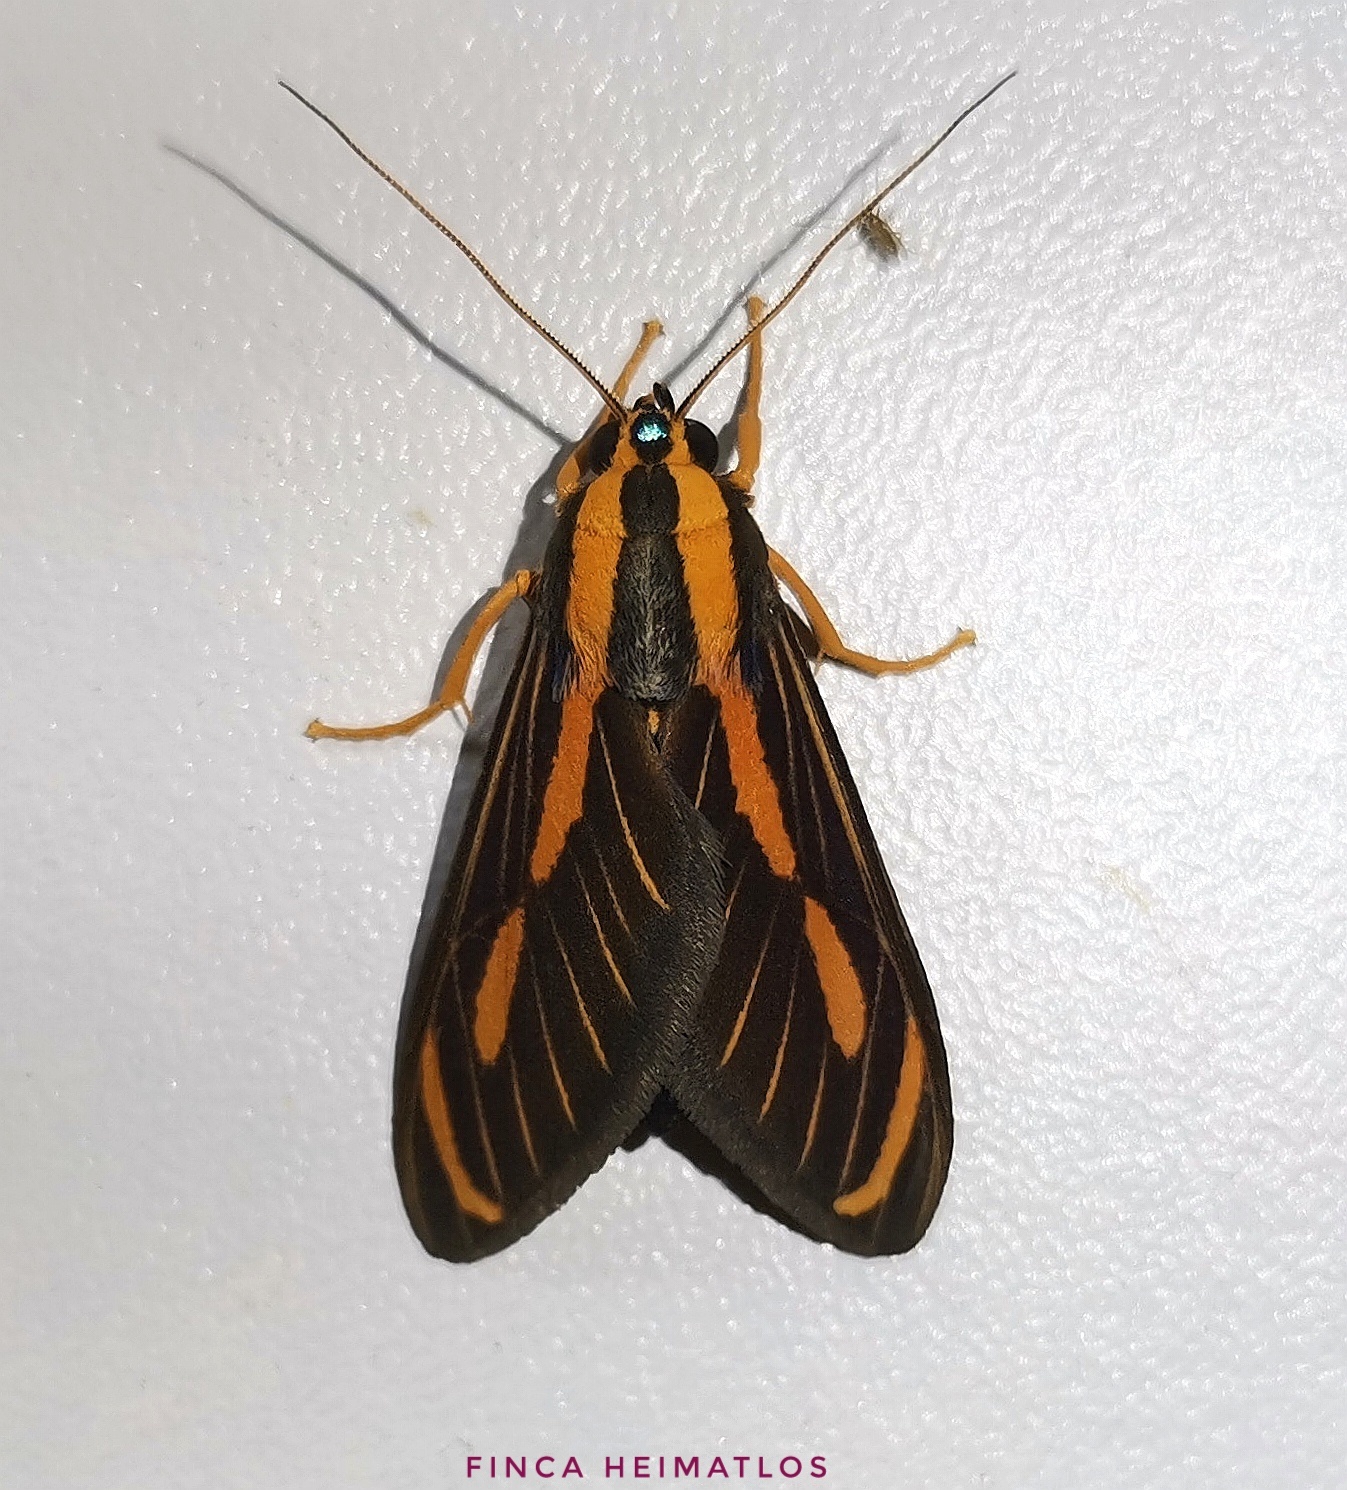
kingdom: Animalia
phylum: Arthropoda
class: Insecta
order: Lepidoptera
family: Erebidae
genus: Ormetica
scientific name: Ormetica sypilus
